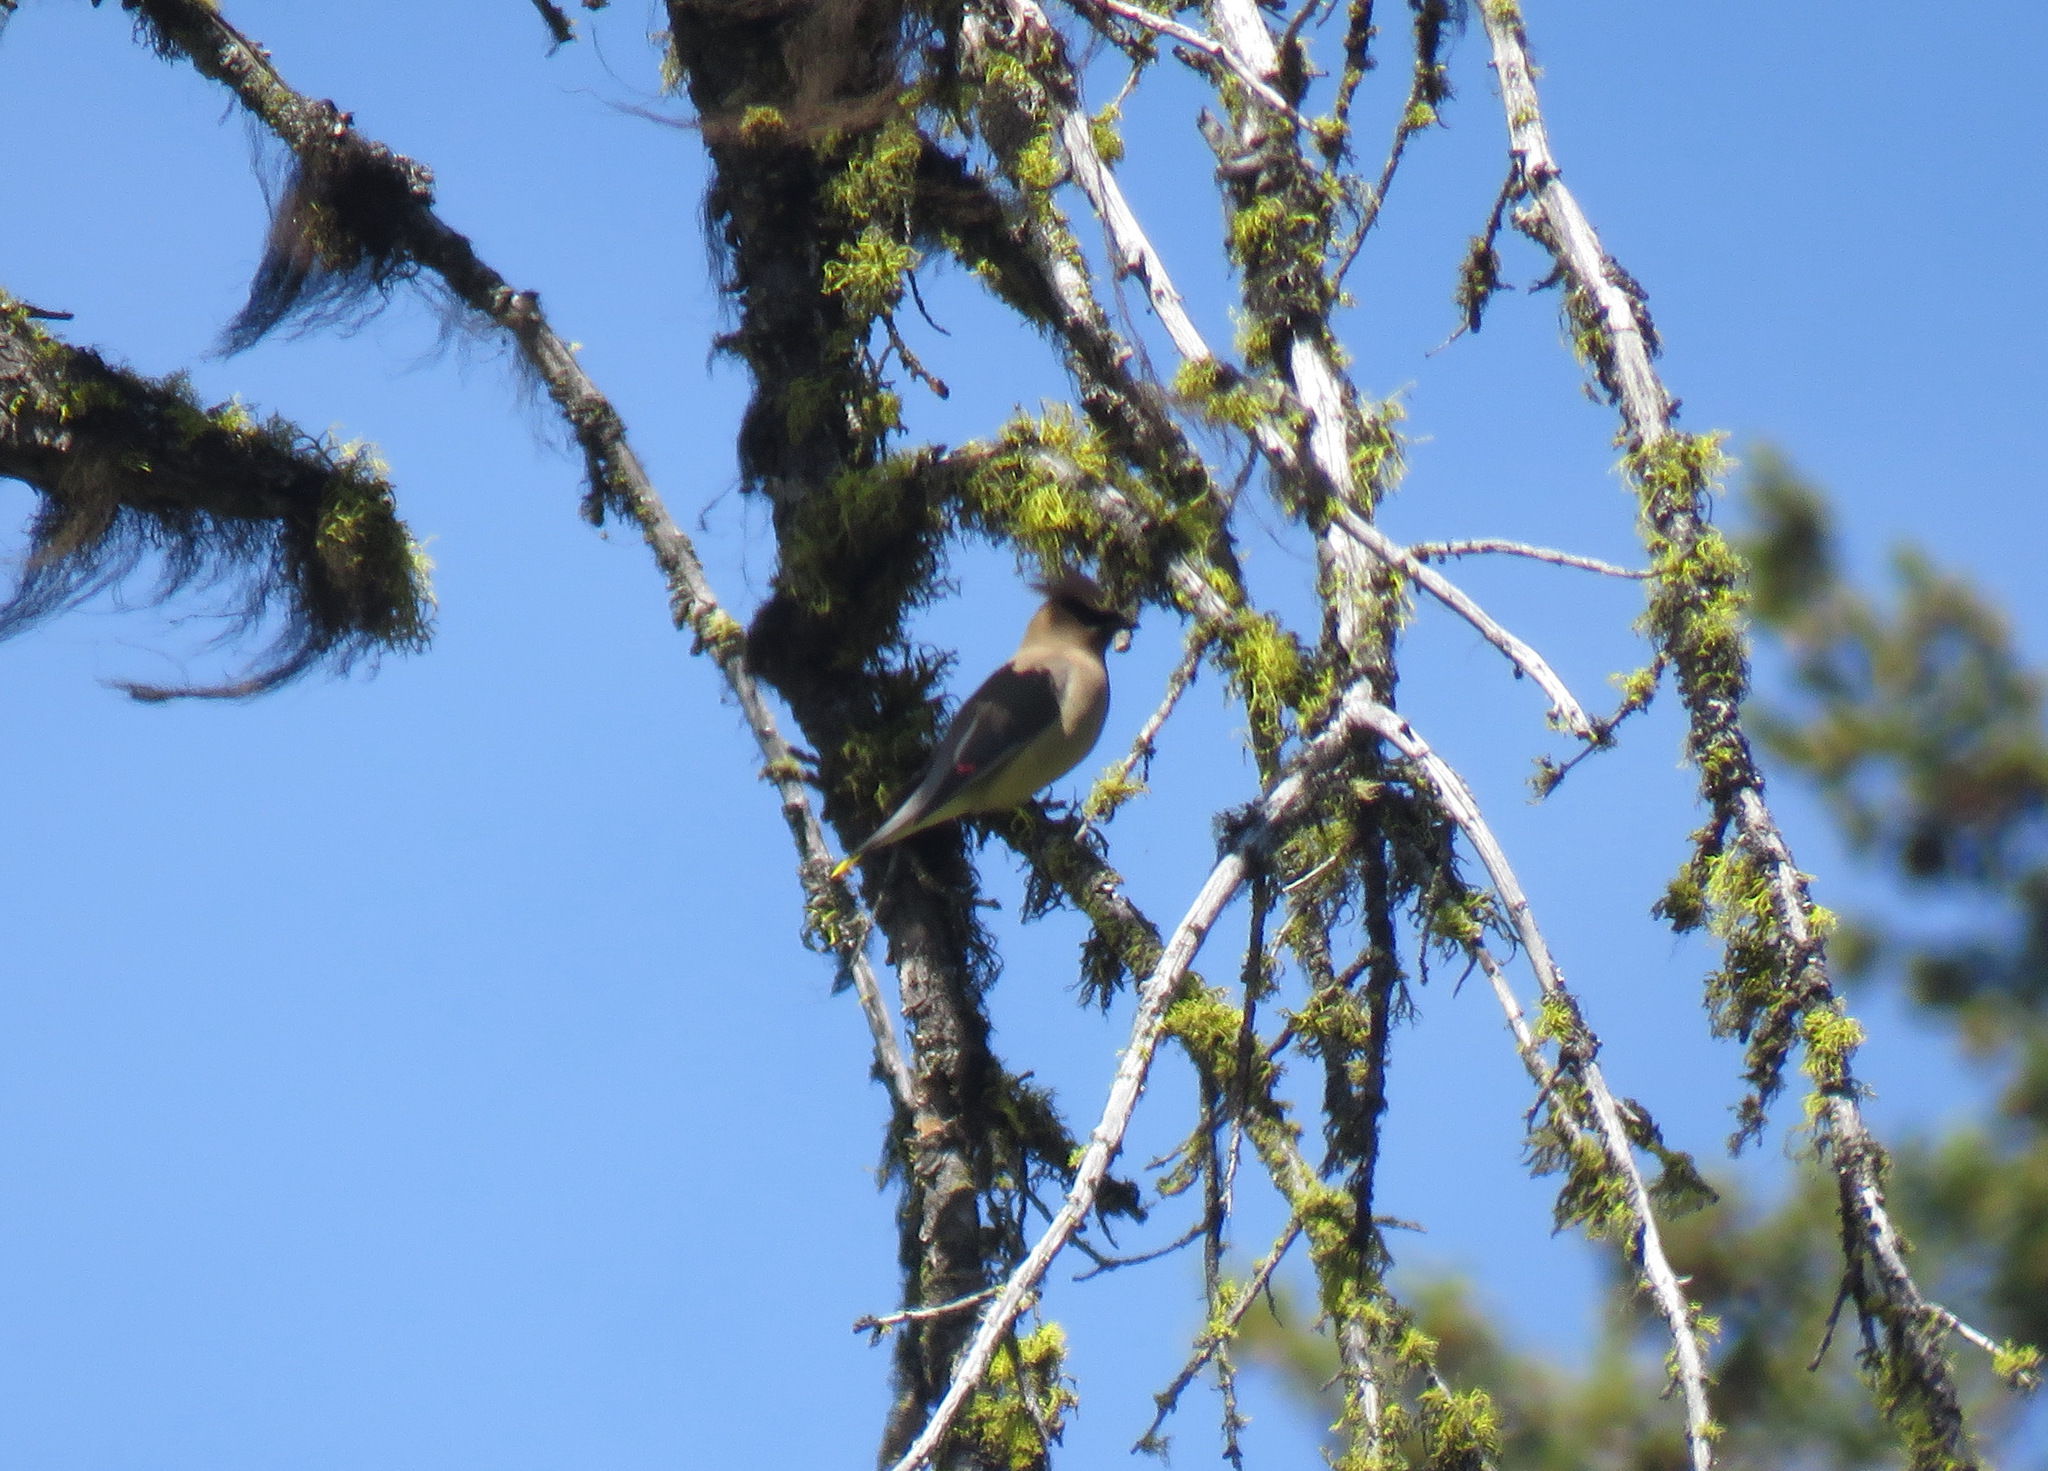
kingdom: Animalia
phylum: Chordata
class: Aves
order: Passeriformes
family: Bombycillidae
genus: Bombycilla
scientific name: Bombycilla cedrorum
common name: Cedar waxwing
